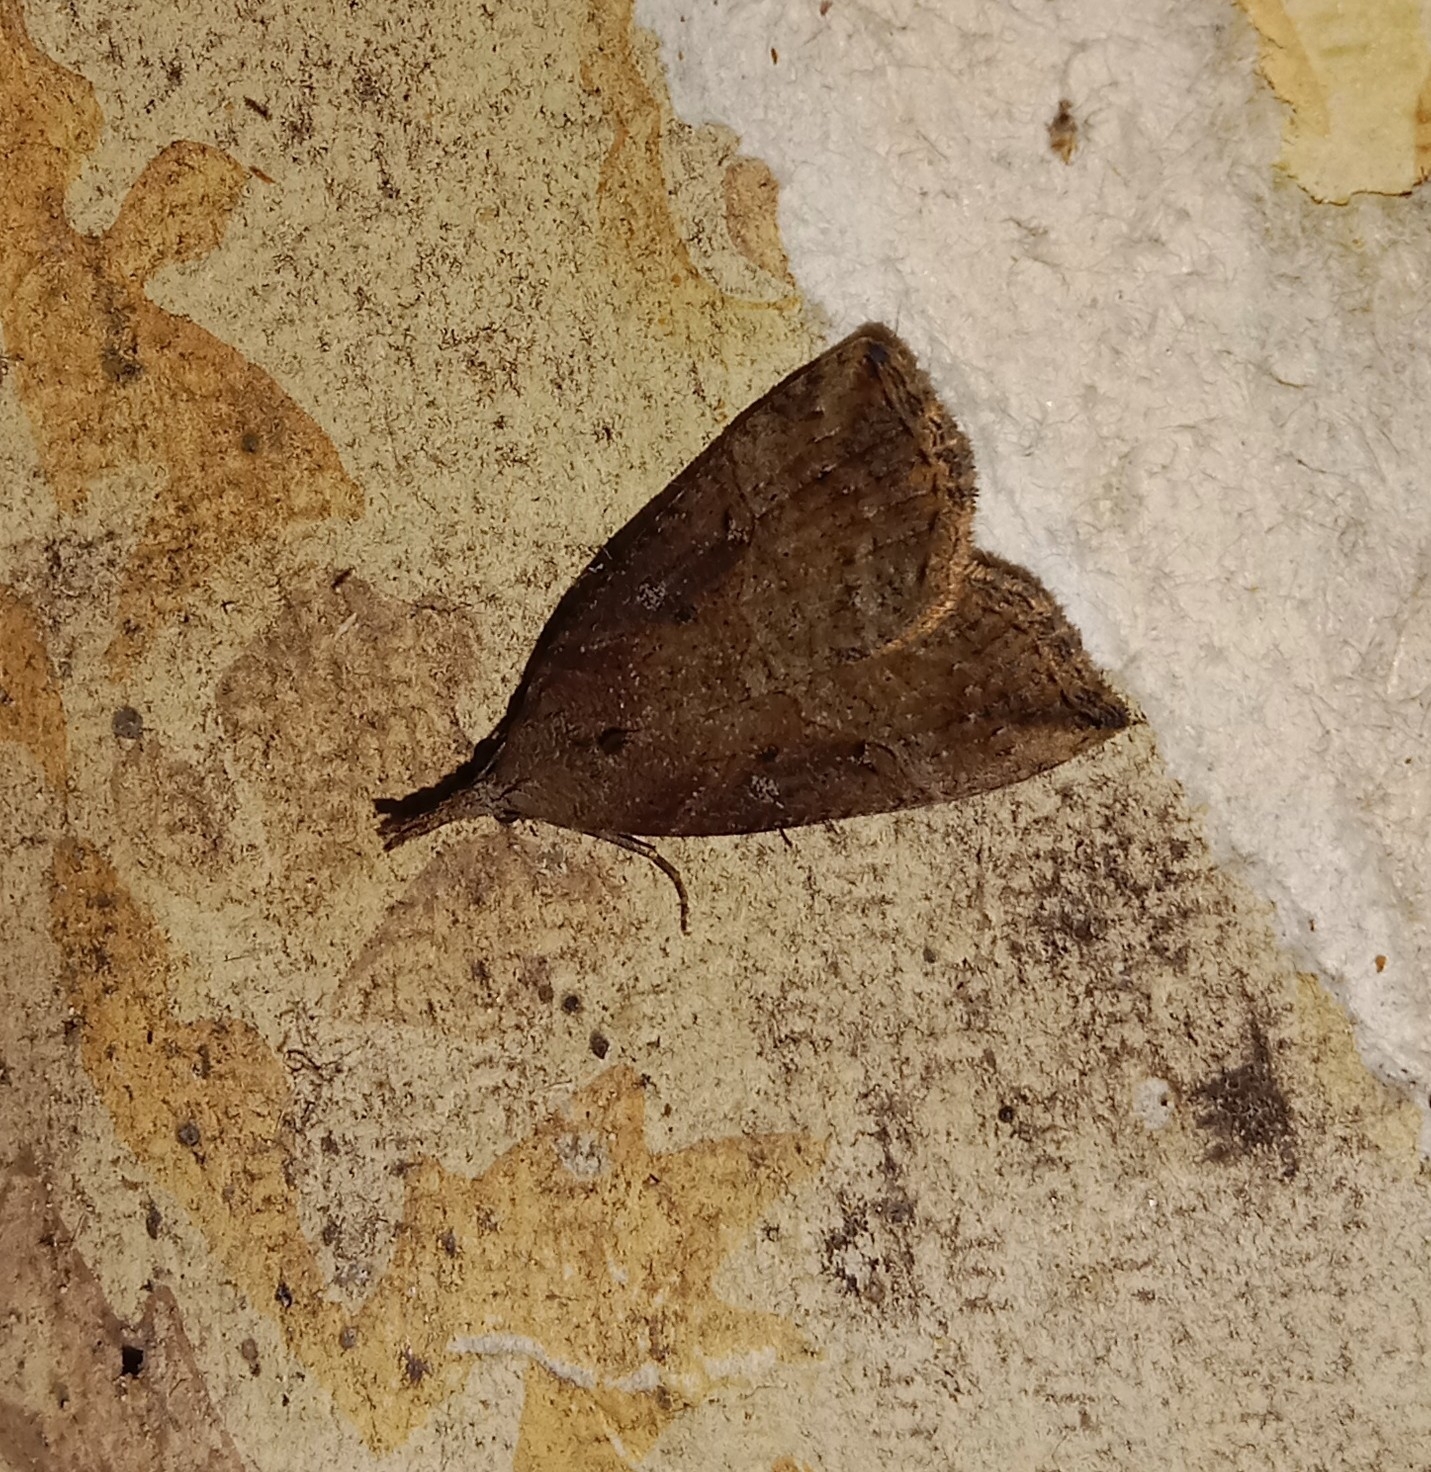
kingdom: Animalia
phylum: Arthropoda
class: Insecta
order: Lepidoptera
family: Erebidae
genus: Hypena
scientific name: Hypena rostralis
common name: Buttoned snout
